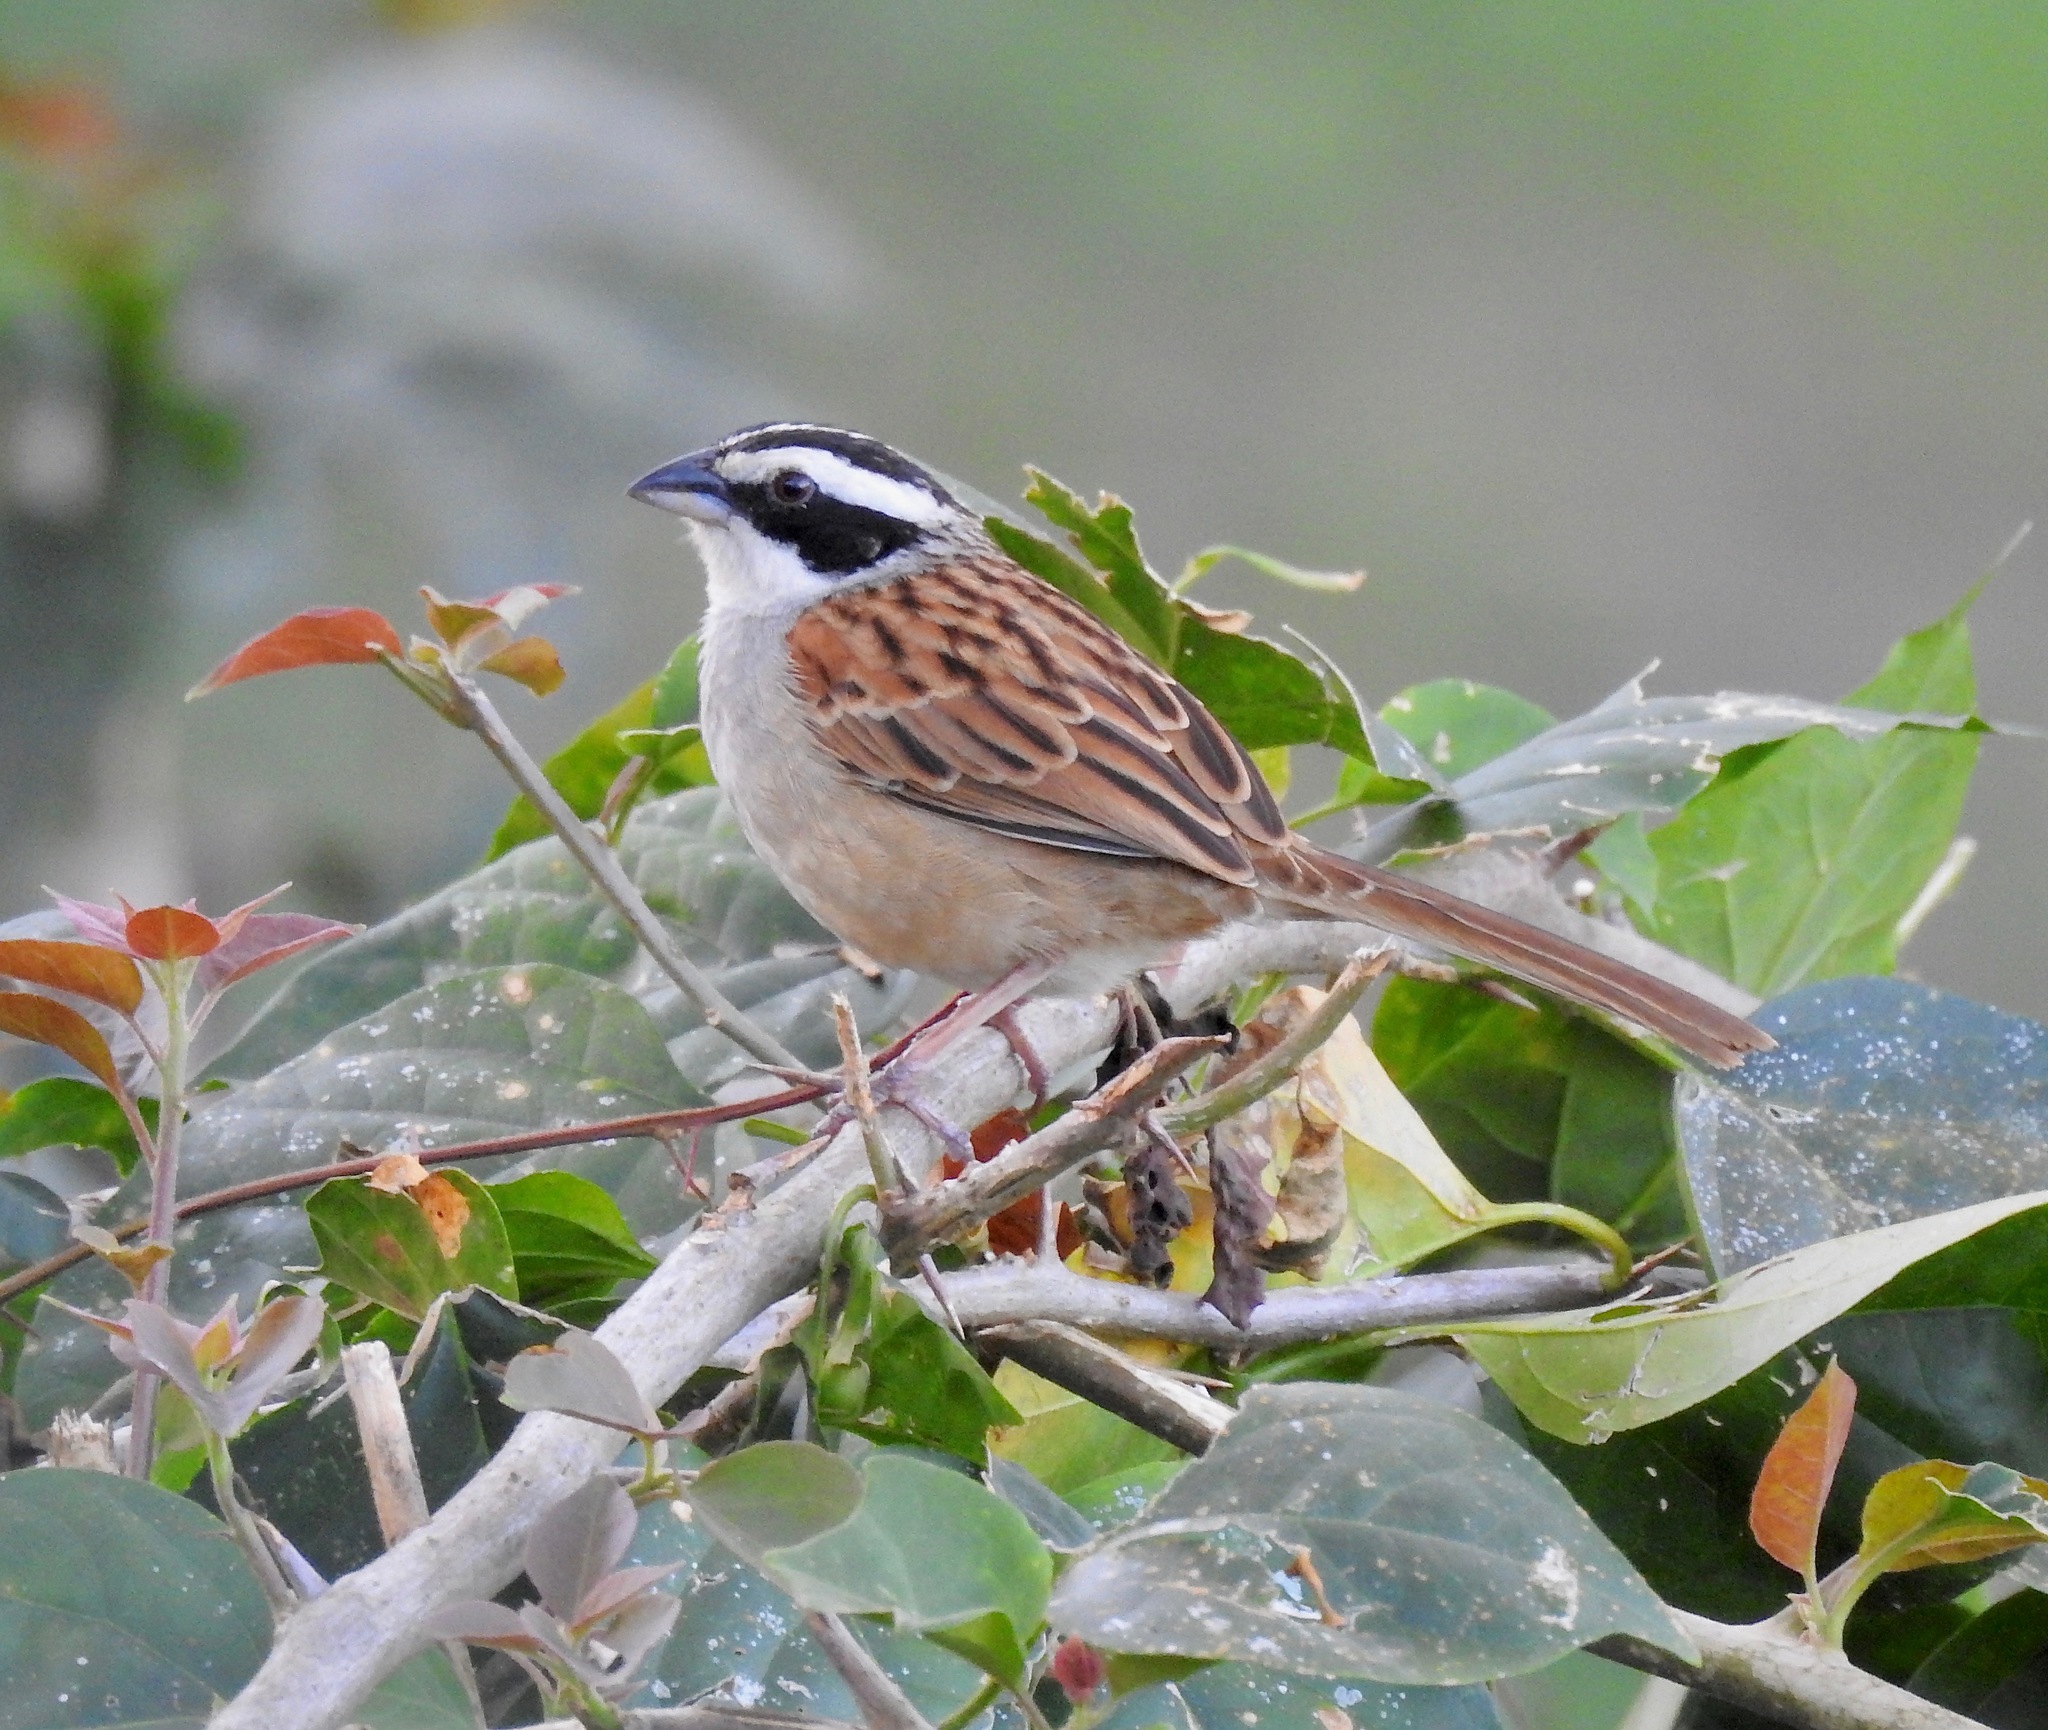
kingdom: Animalia
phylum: Chordata
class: Aves
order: Passeriformes
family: Passerellidae
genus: Peucaea
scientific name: Peucaea ruficauda
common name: Stripe-headed sparrow
